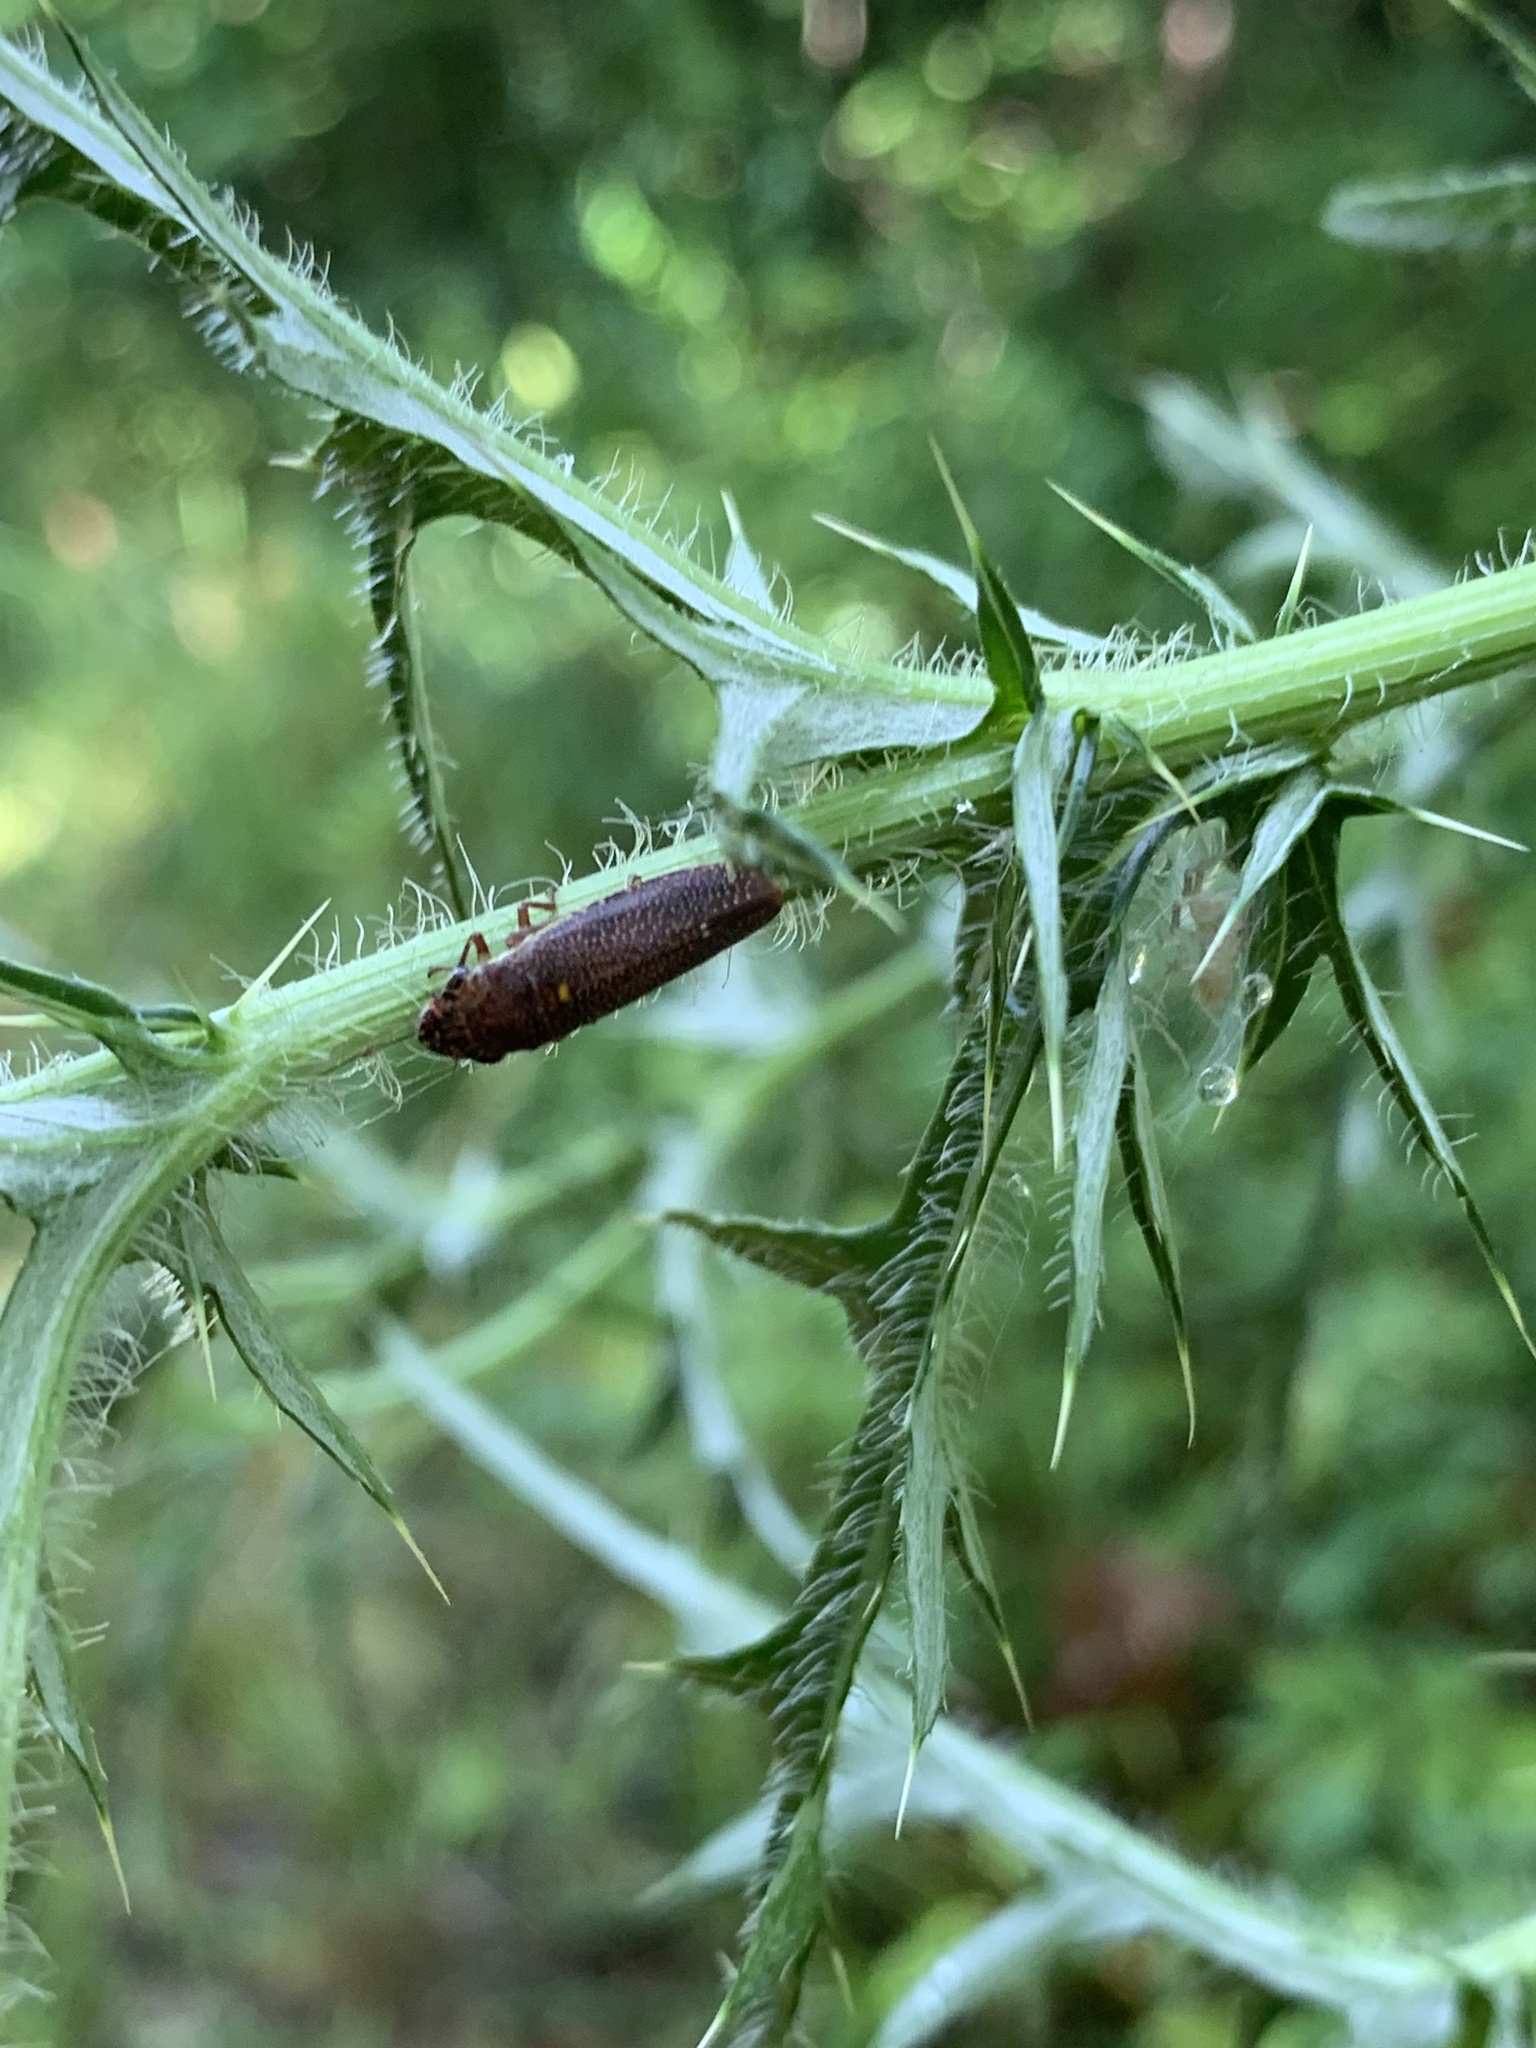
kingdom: Animalia
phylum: Arthropoda
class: Insecta
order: Hemiptera
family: Cicadellidae
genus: Paraulacizes
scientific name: Paraulacizes irrorata
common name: Speckled sharpshooter
